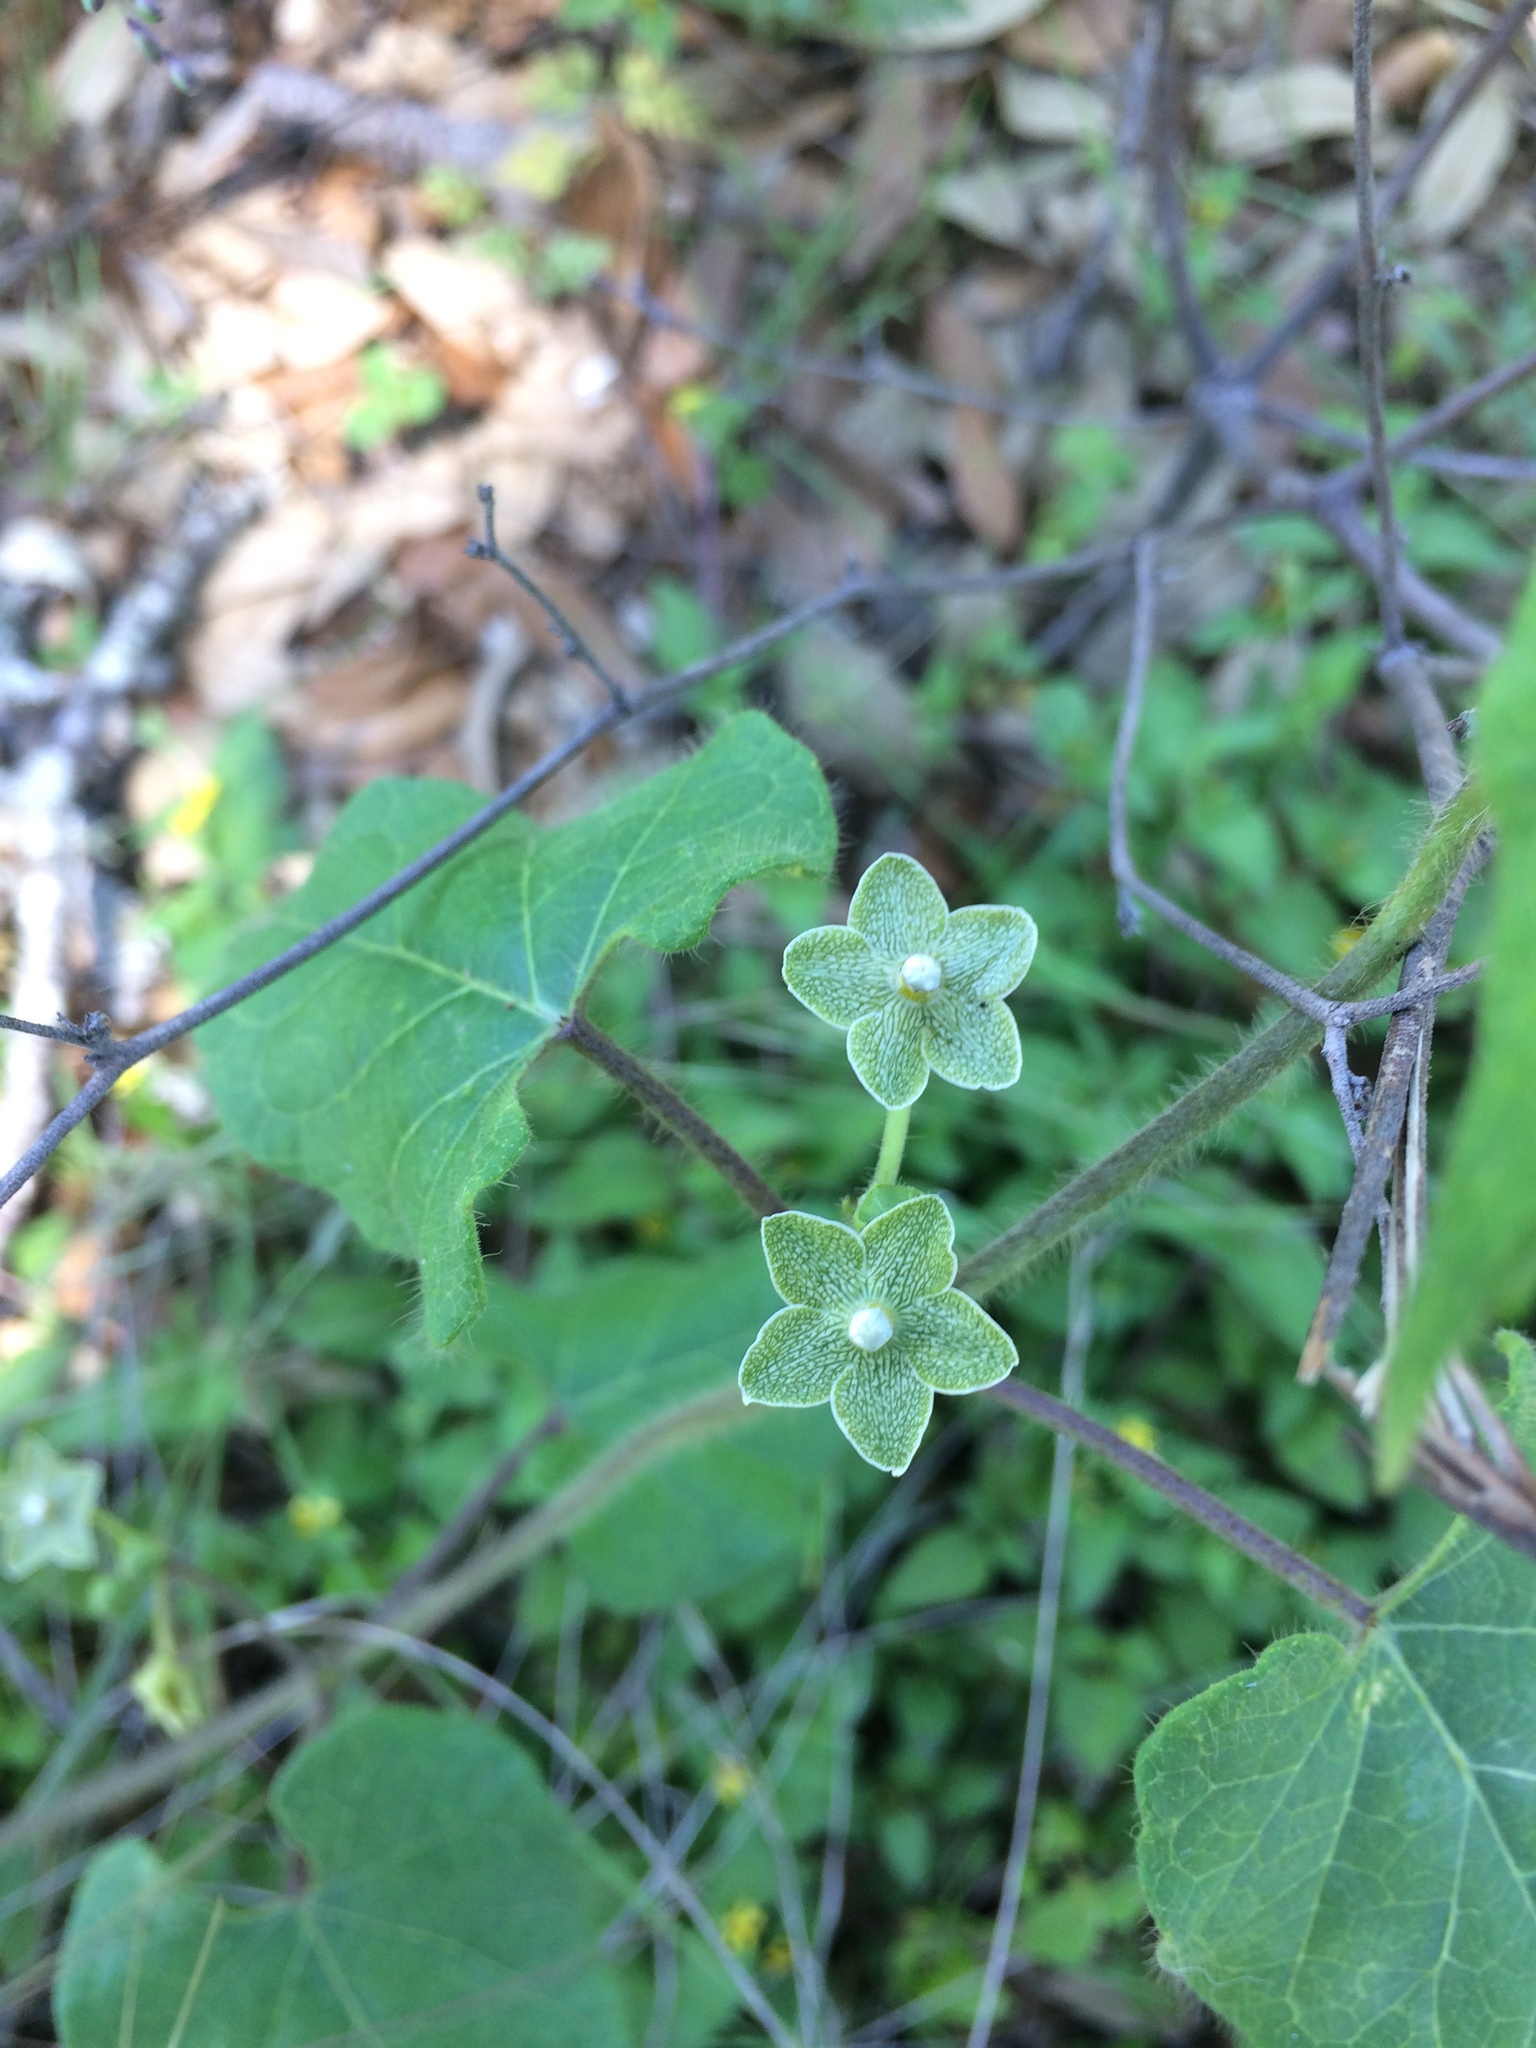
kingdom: Plantae
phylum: Tracheophyta
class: Magnoliopsida
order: Gentianales
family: Apocynaceae
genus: Dictyanthus
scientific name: Dictyanthus reticulatus
